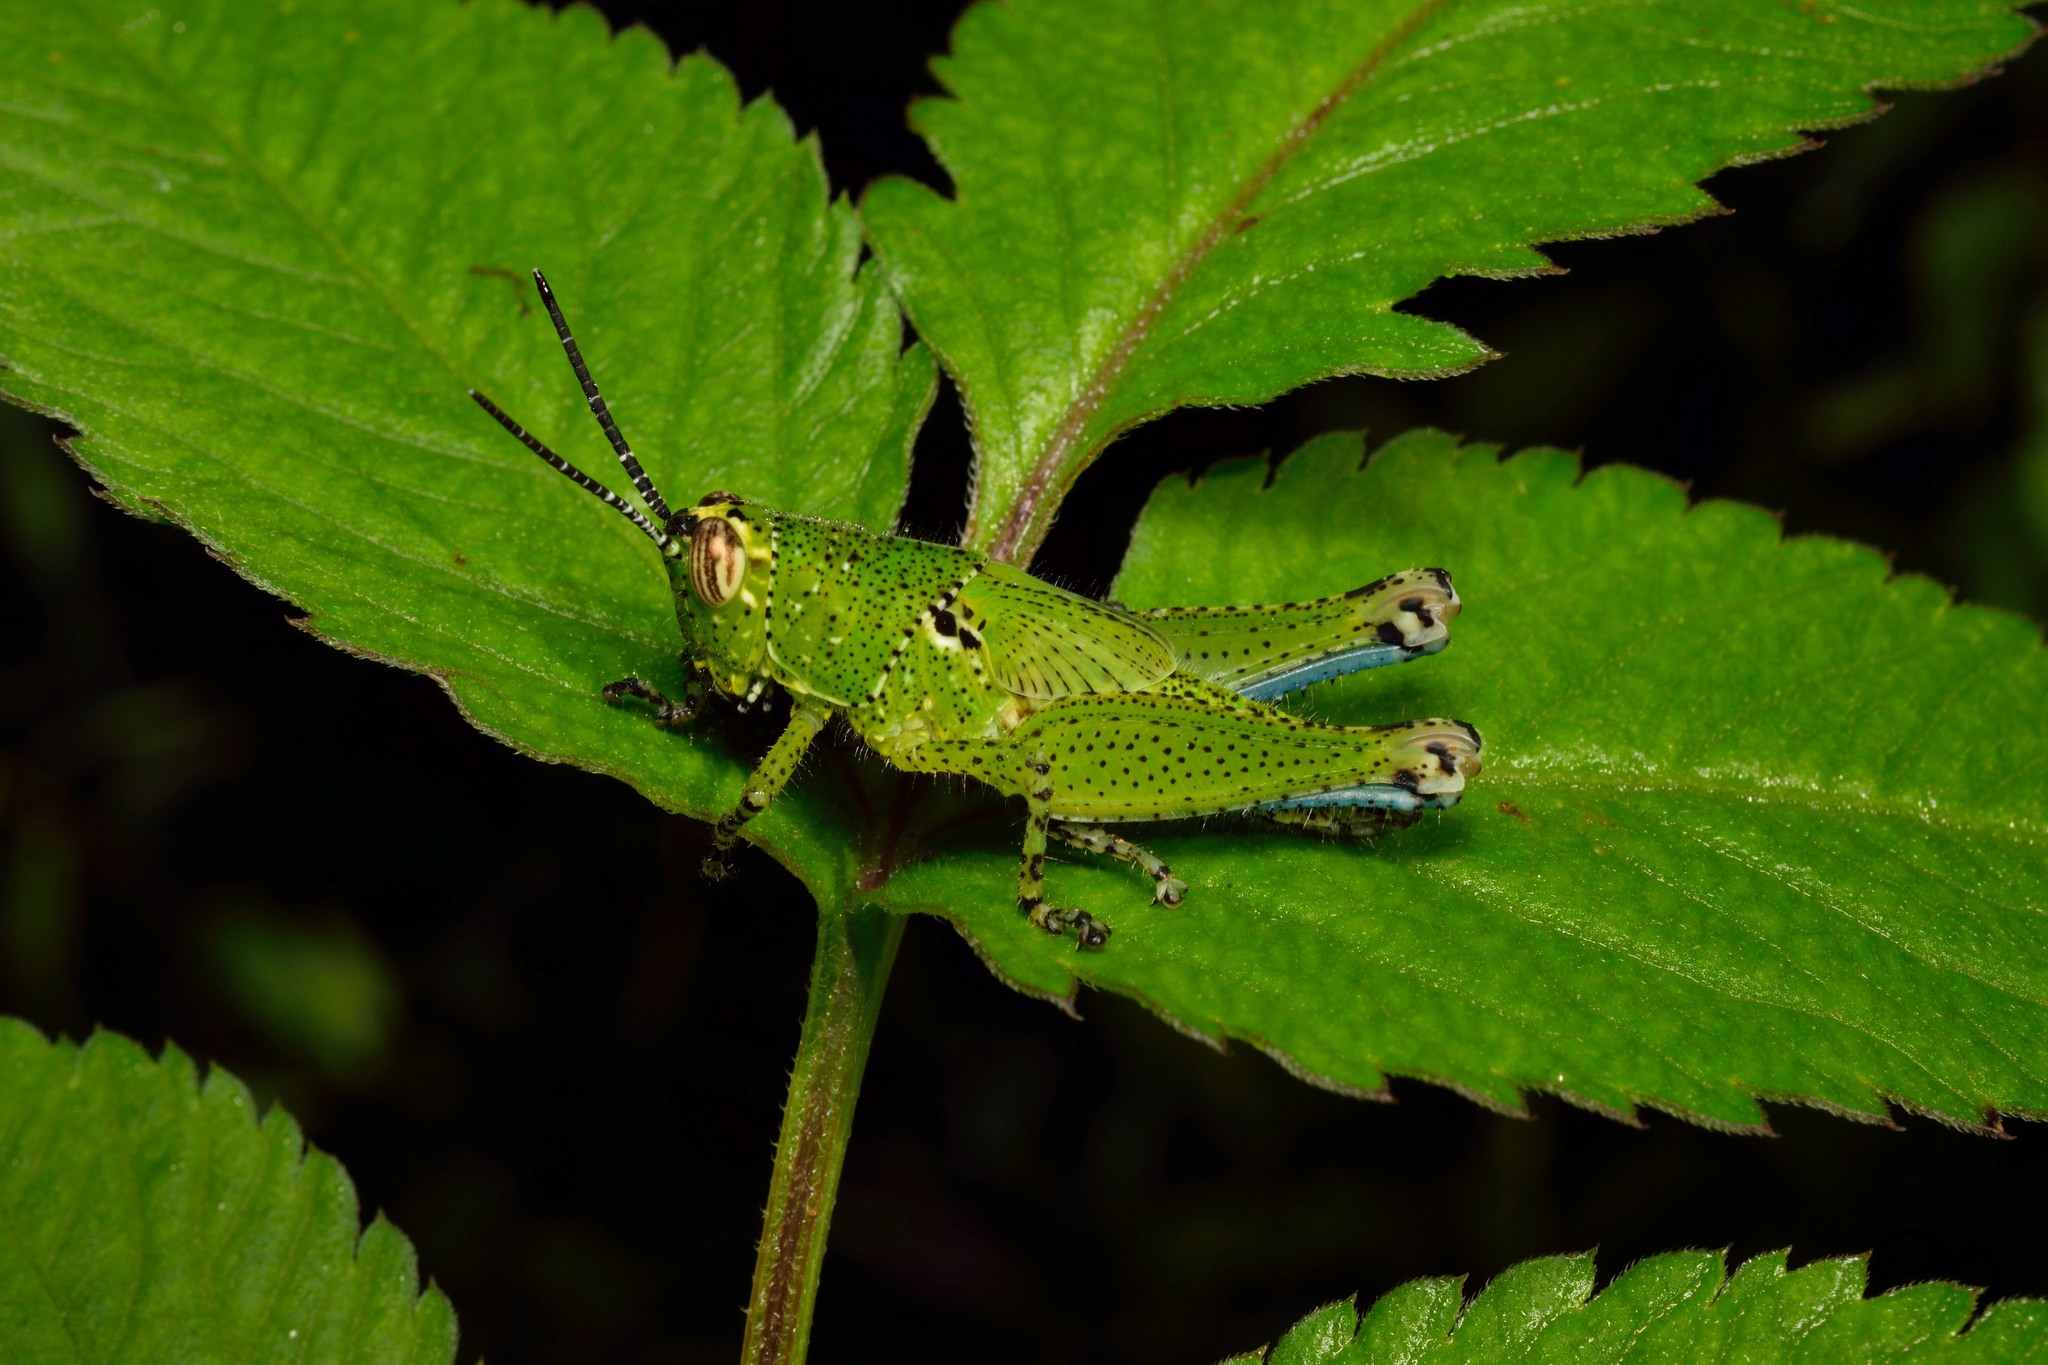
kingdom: Animalia
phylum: Arthropoda
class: Insecta
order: Orthoptera
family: Acrididae
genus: Xenocatantops
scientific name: Xenocatantops humile
